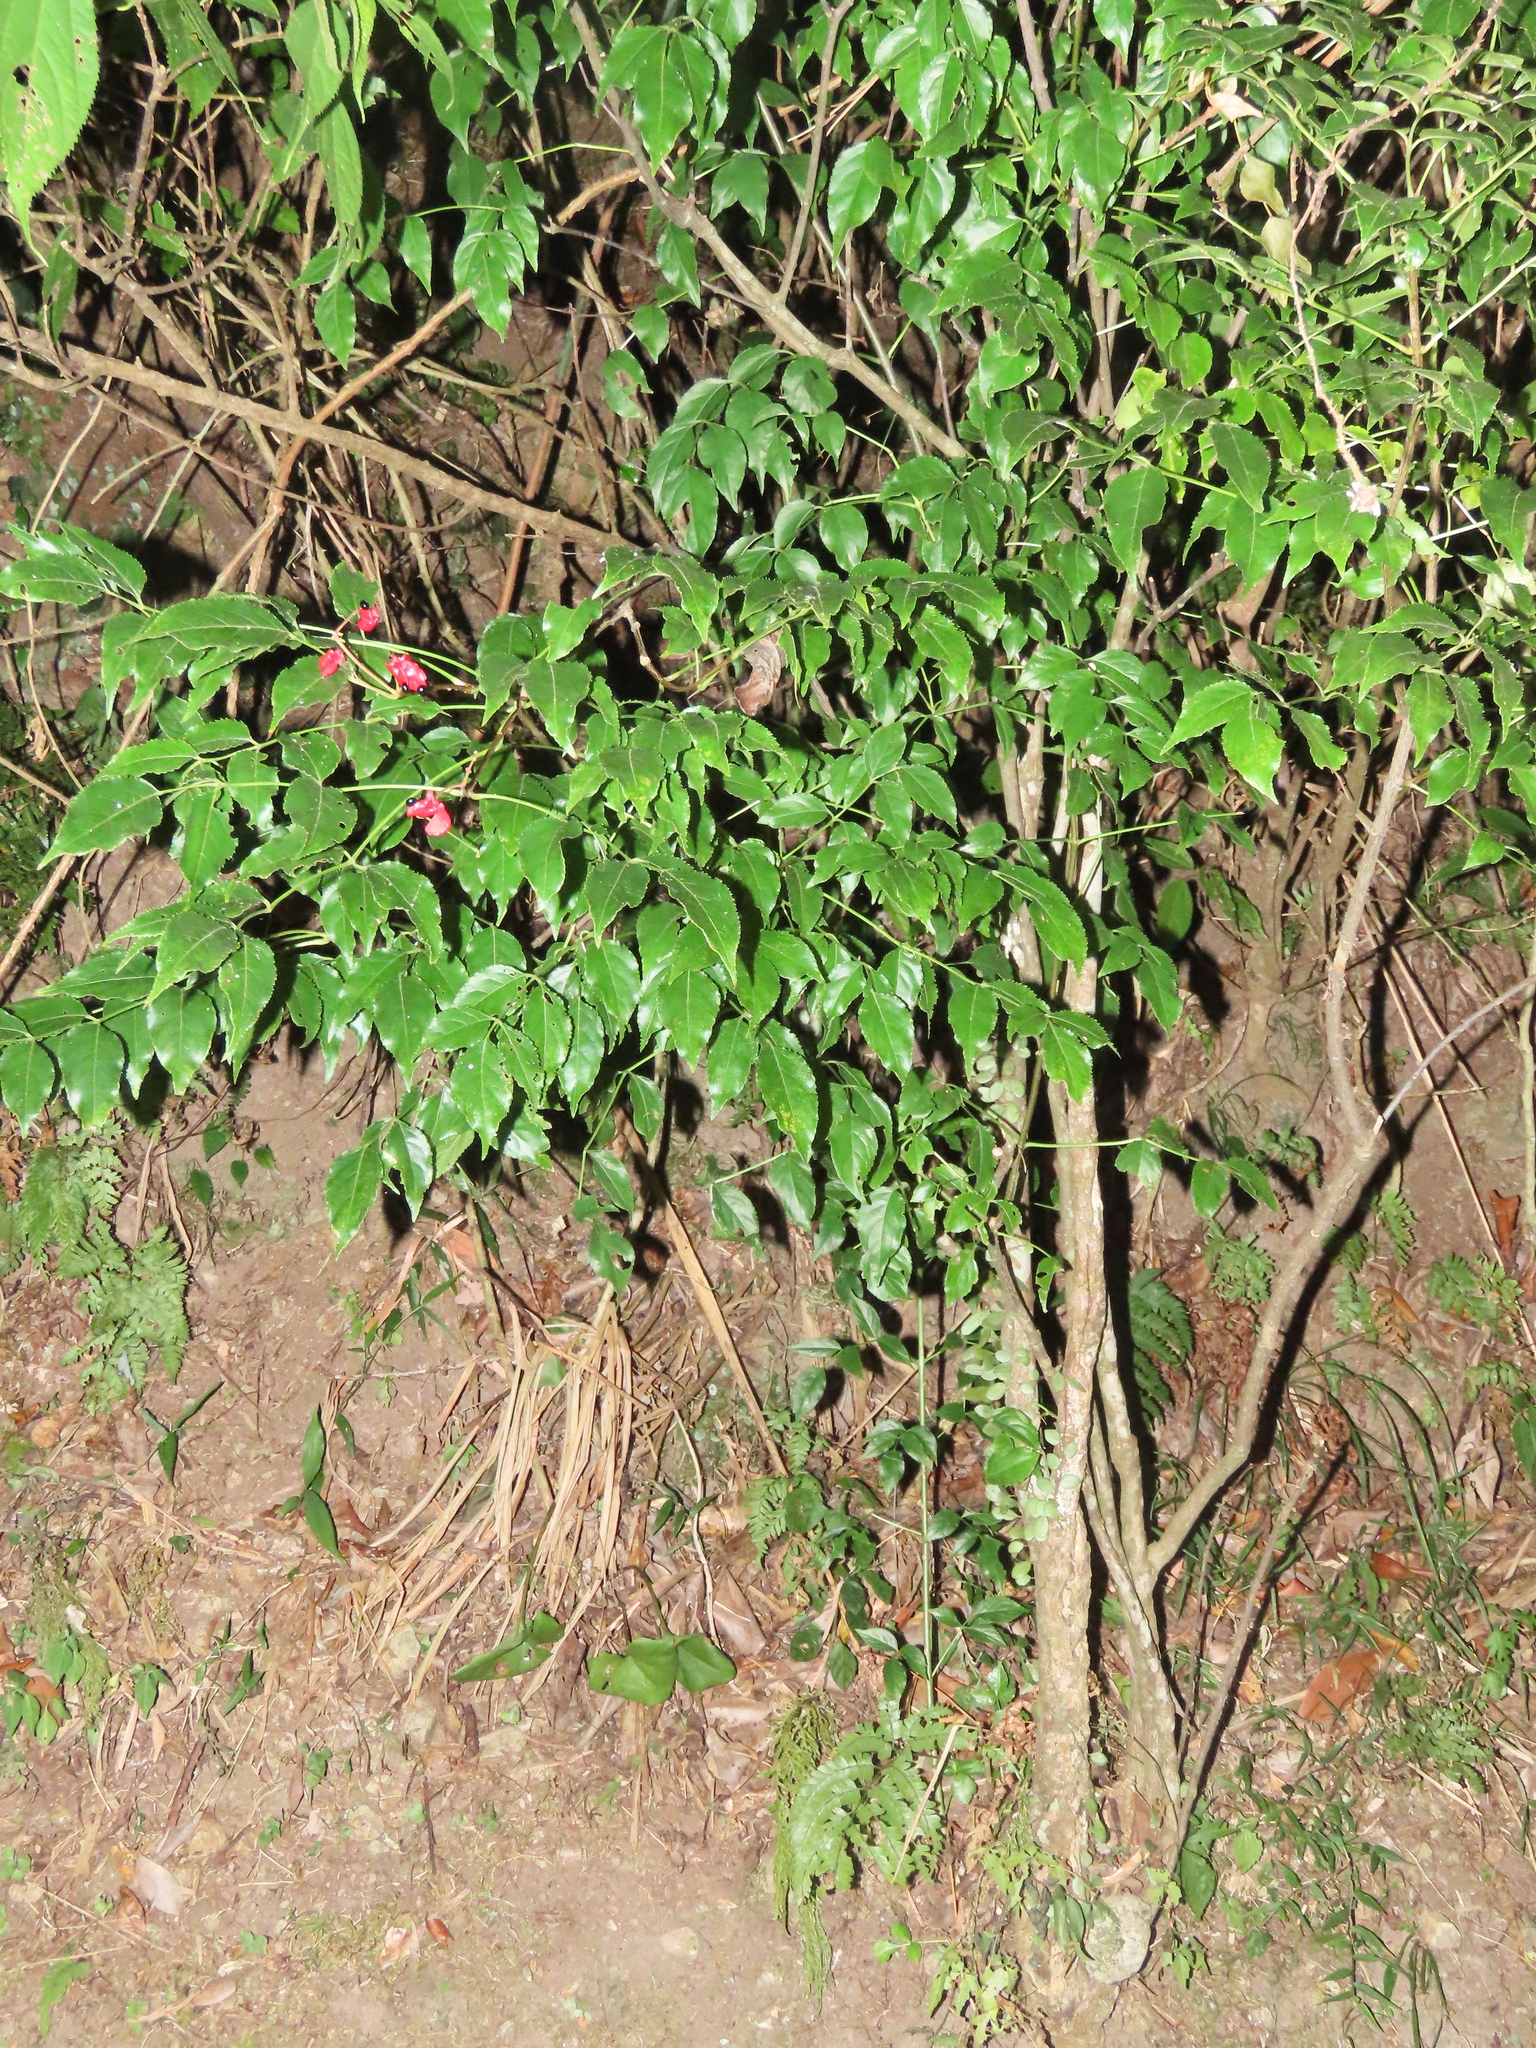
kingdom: Plantae
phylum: Tracheophyta
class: Magnoliopsida
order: Crossosomatales
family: Staphyleaceae
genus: Staphylea
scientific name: Staphylea japonica
